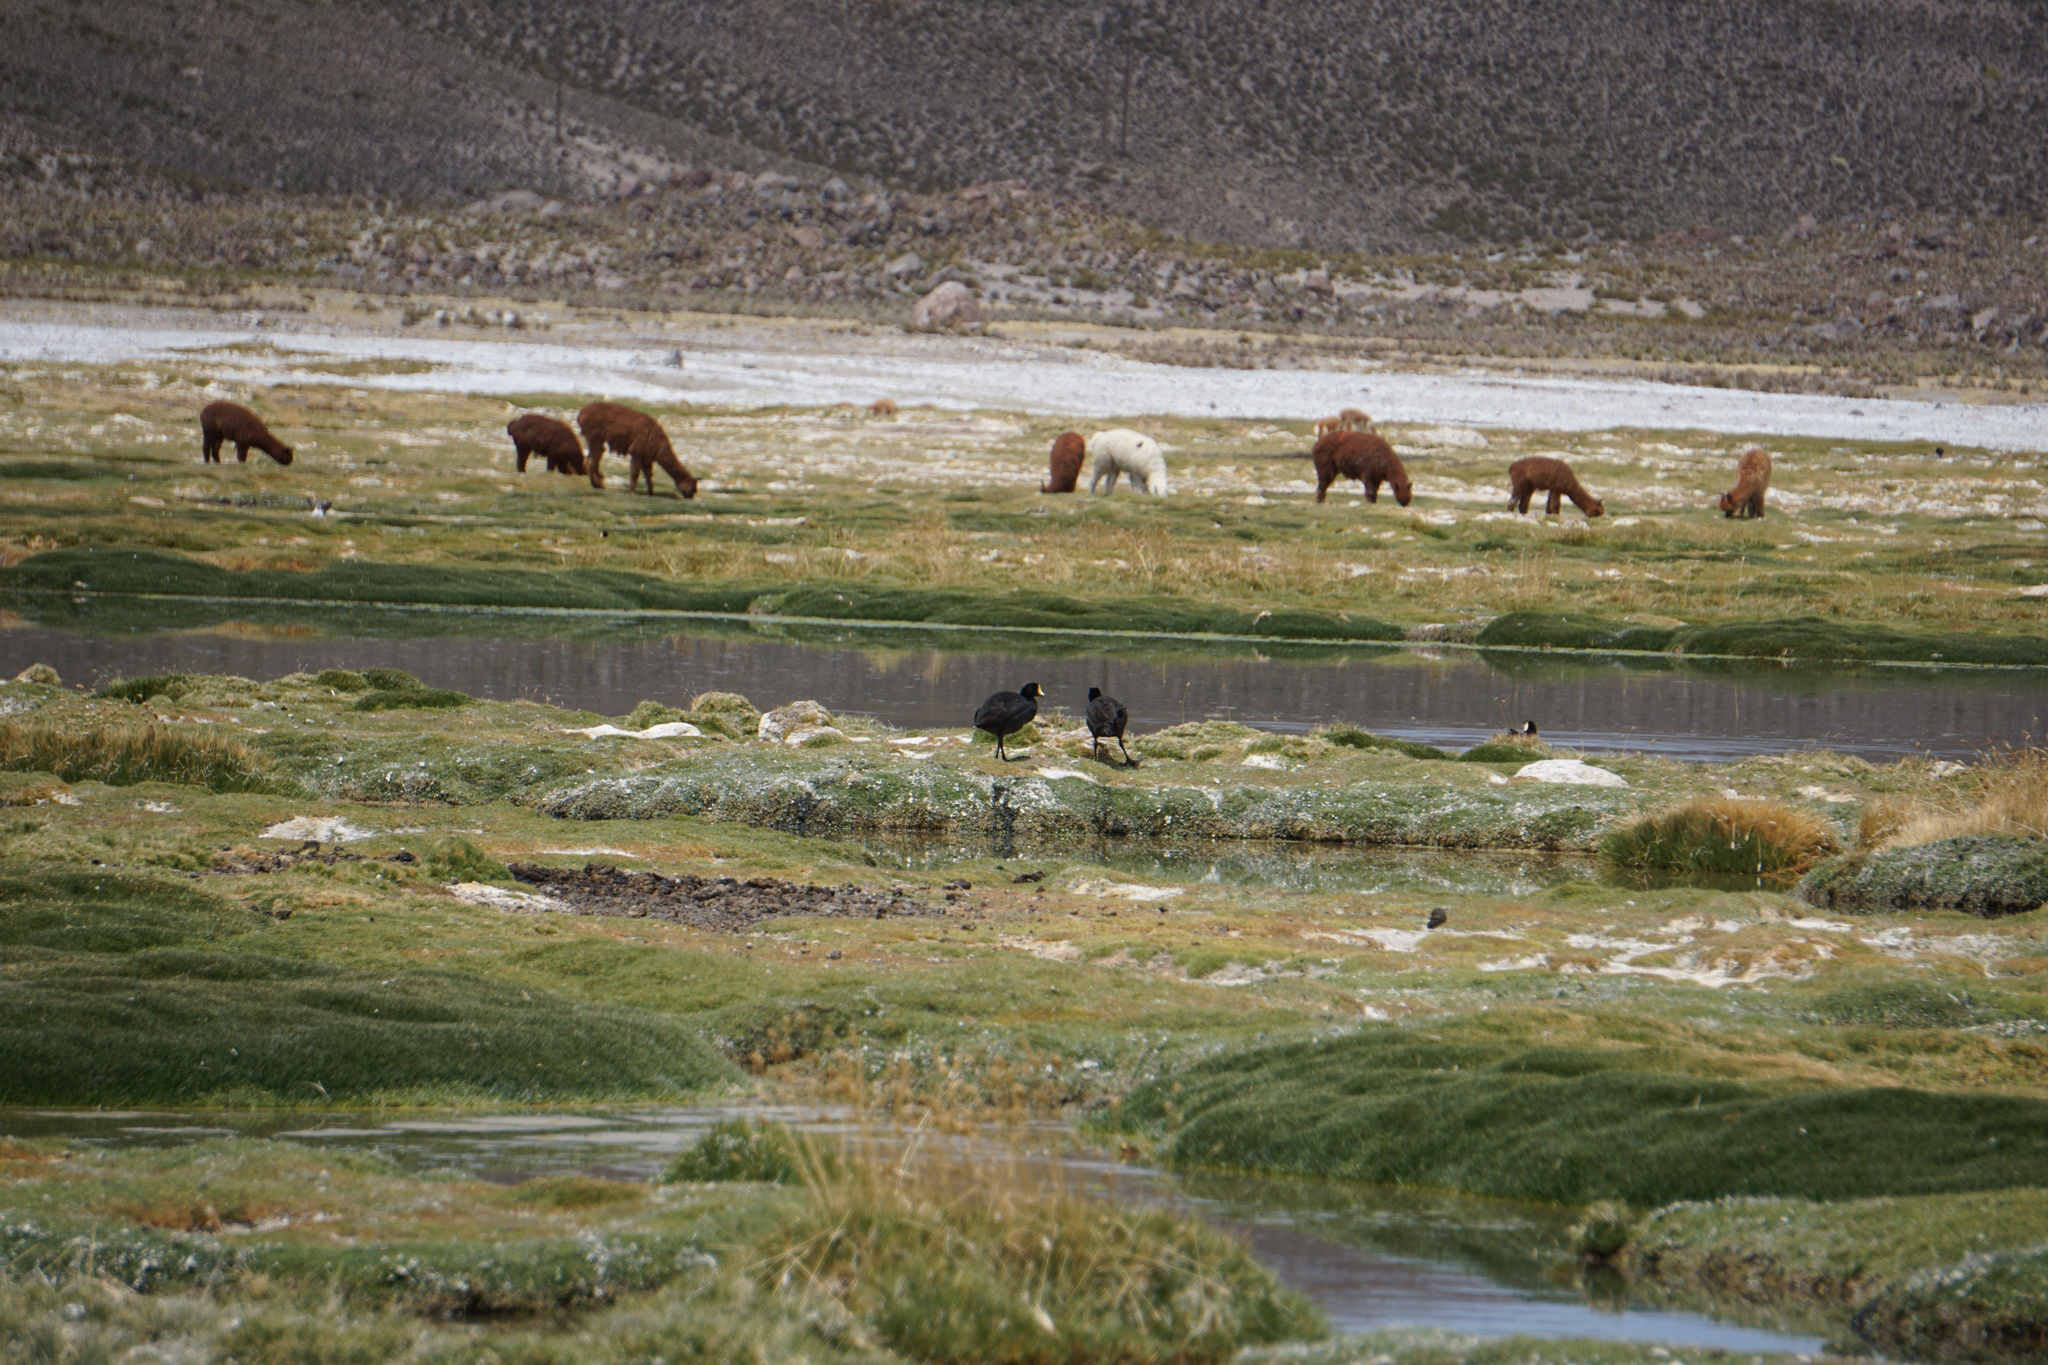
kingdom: Animalia
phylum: Chordata
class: Aves
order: Gruiformes
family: Rallidae
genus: Fulica
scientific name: Fulica gigantea
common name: Giant coot
